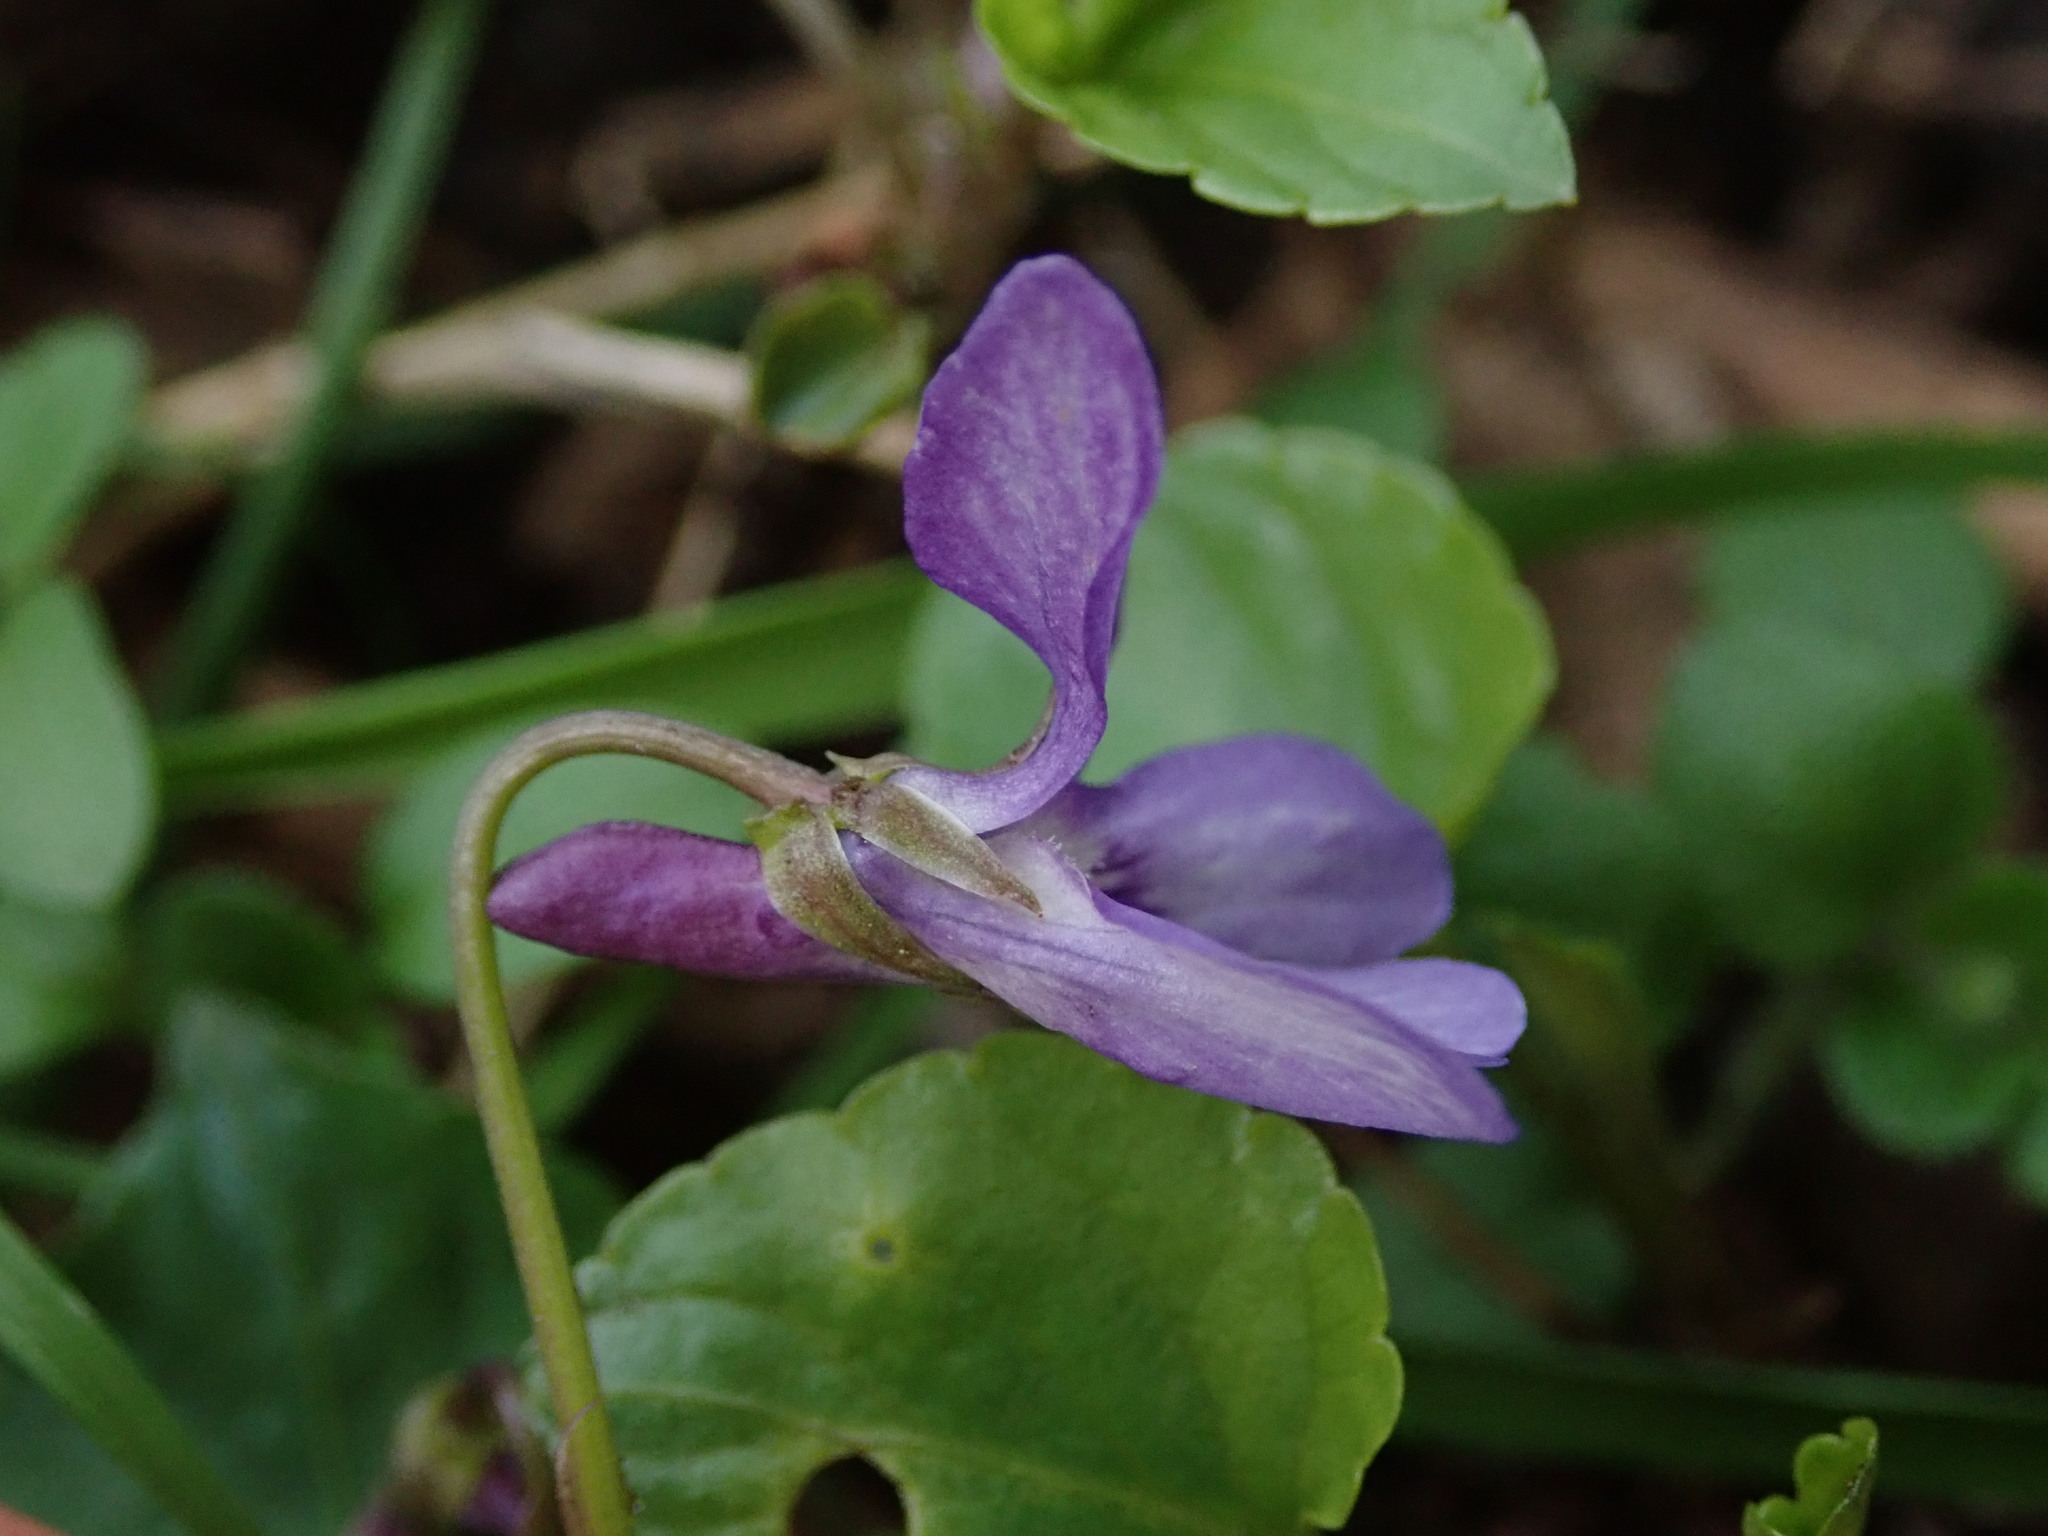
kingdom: Plantae
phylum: Tracheophyta
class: Magnoliopsida
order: Malpighiales
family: Violaceae
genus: Viola
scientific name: Viola reichenbachiana
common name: Early dog-violet
